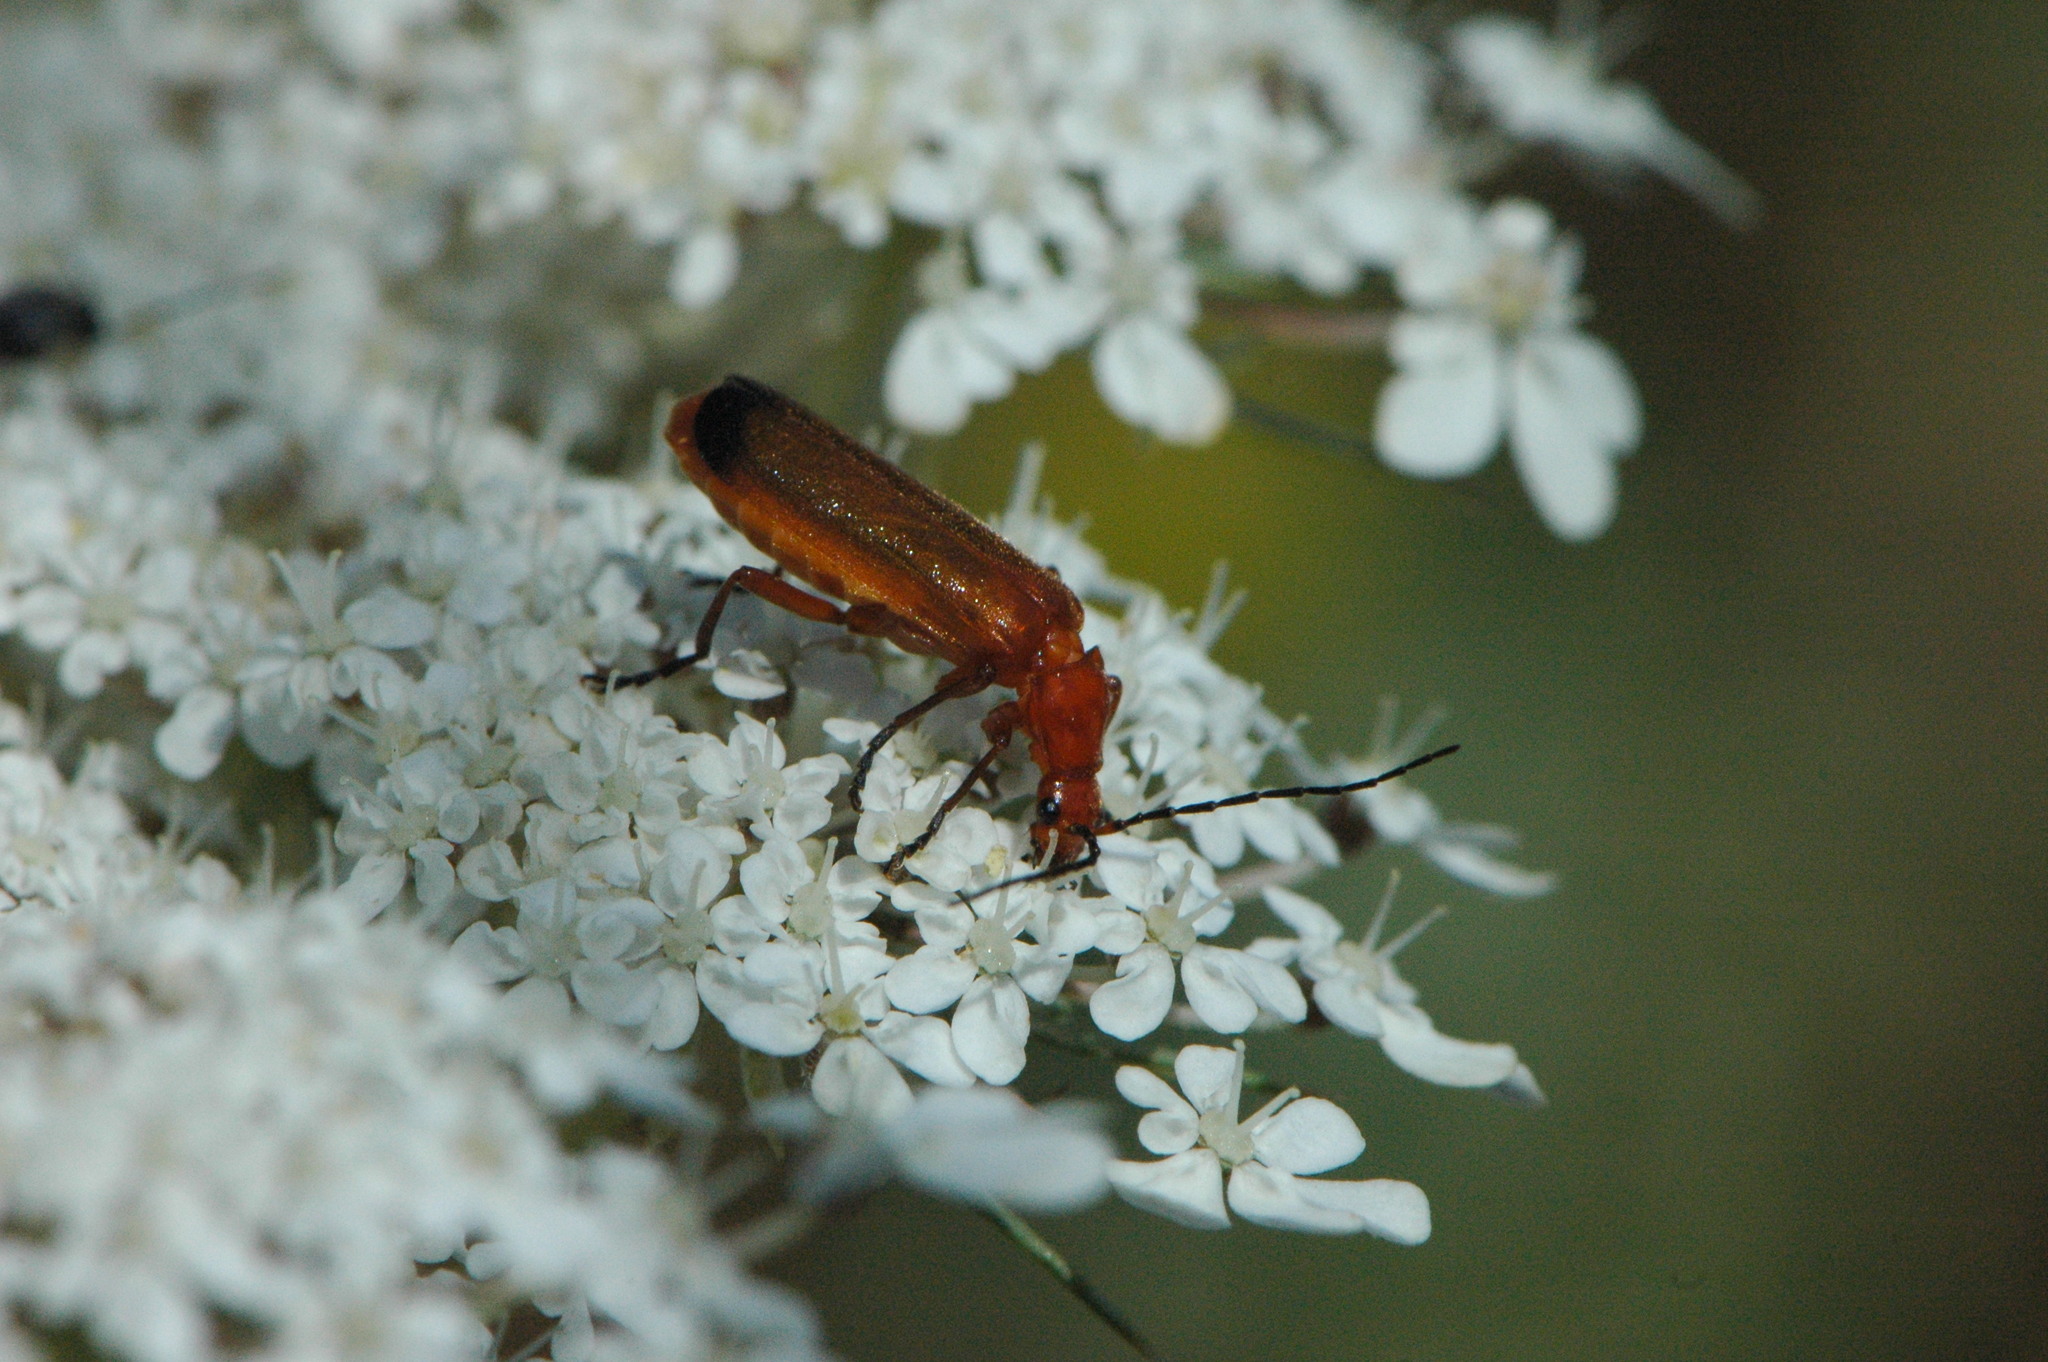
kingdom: Animalia
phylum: Arthropoda
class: Insecta
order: Coleoptera
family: Cantharidae
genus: Rhagonycha
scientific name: Rhagonycha fulva
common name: Common red soldier beetle
